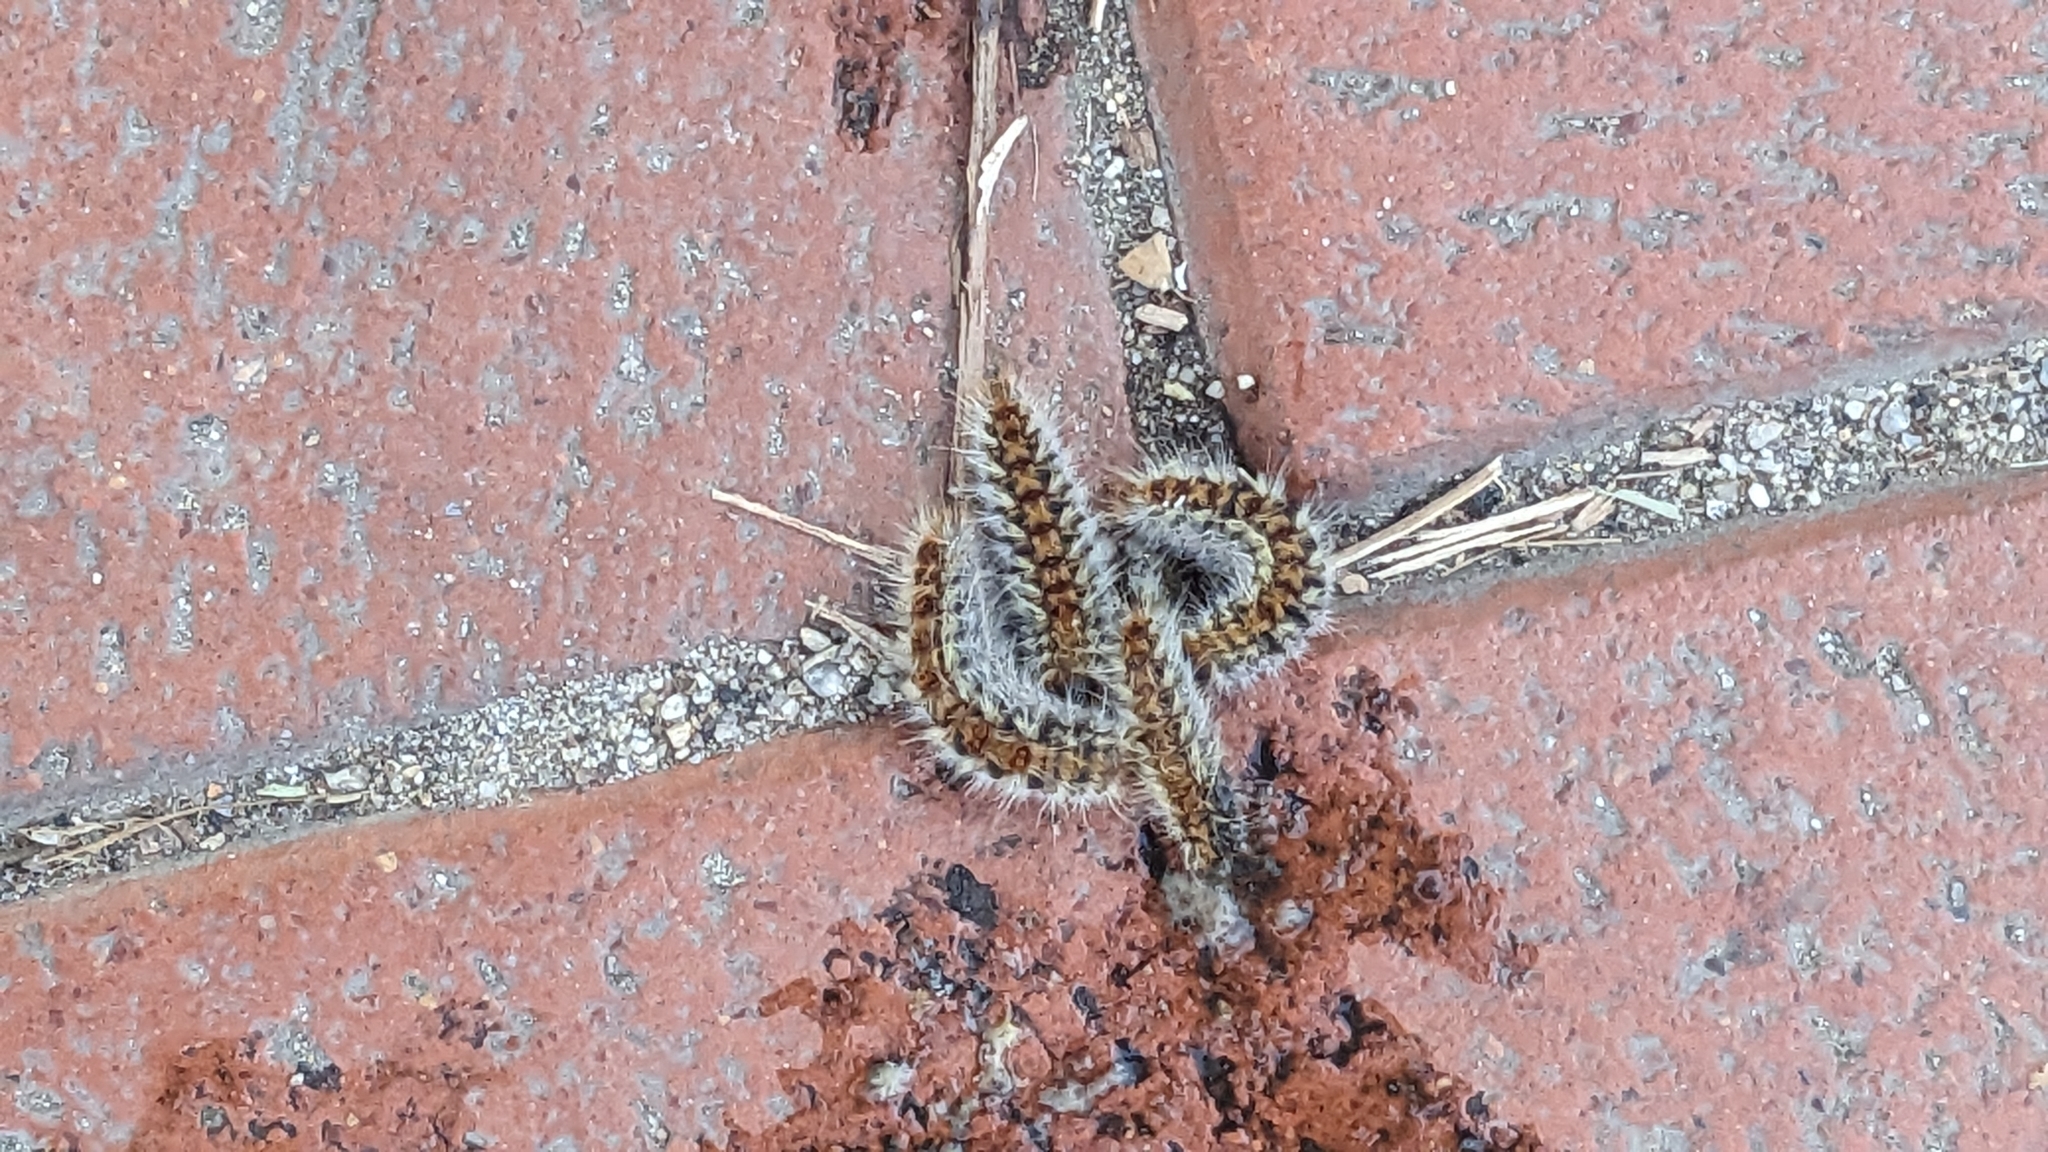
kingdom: Animalia
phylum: Arthropoda
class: Insecta
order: Lepidoptera
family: Notodontidae
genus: Thaumetopoea
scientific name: Thaumetopoea pityocampa
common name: Pine processionary
